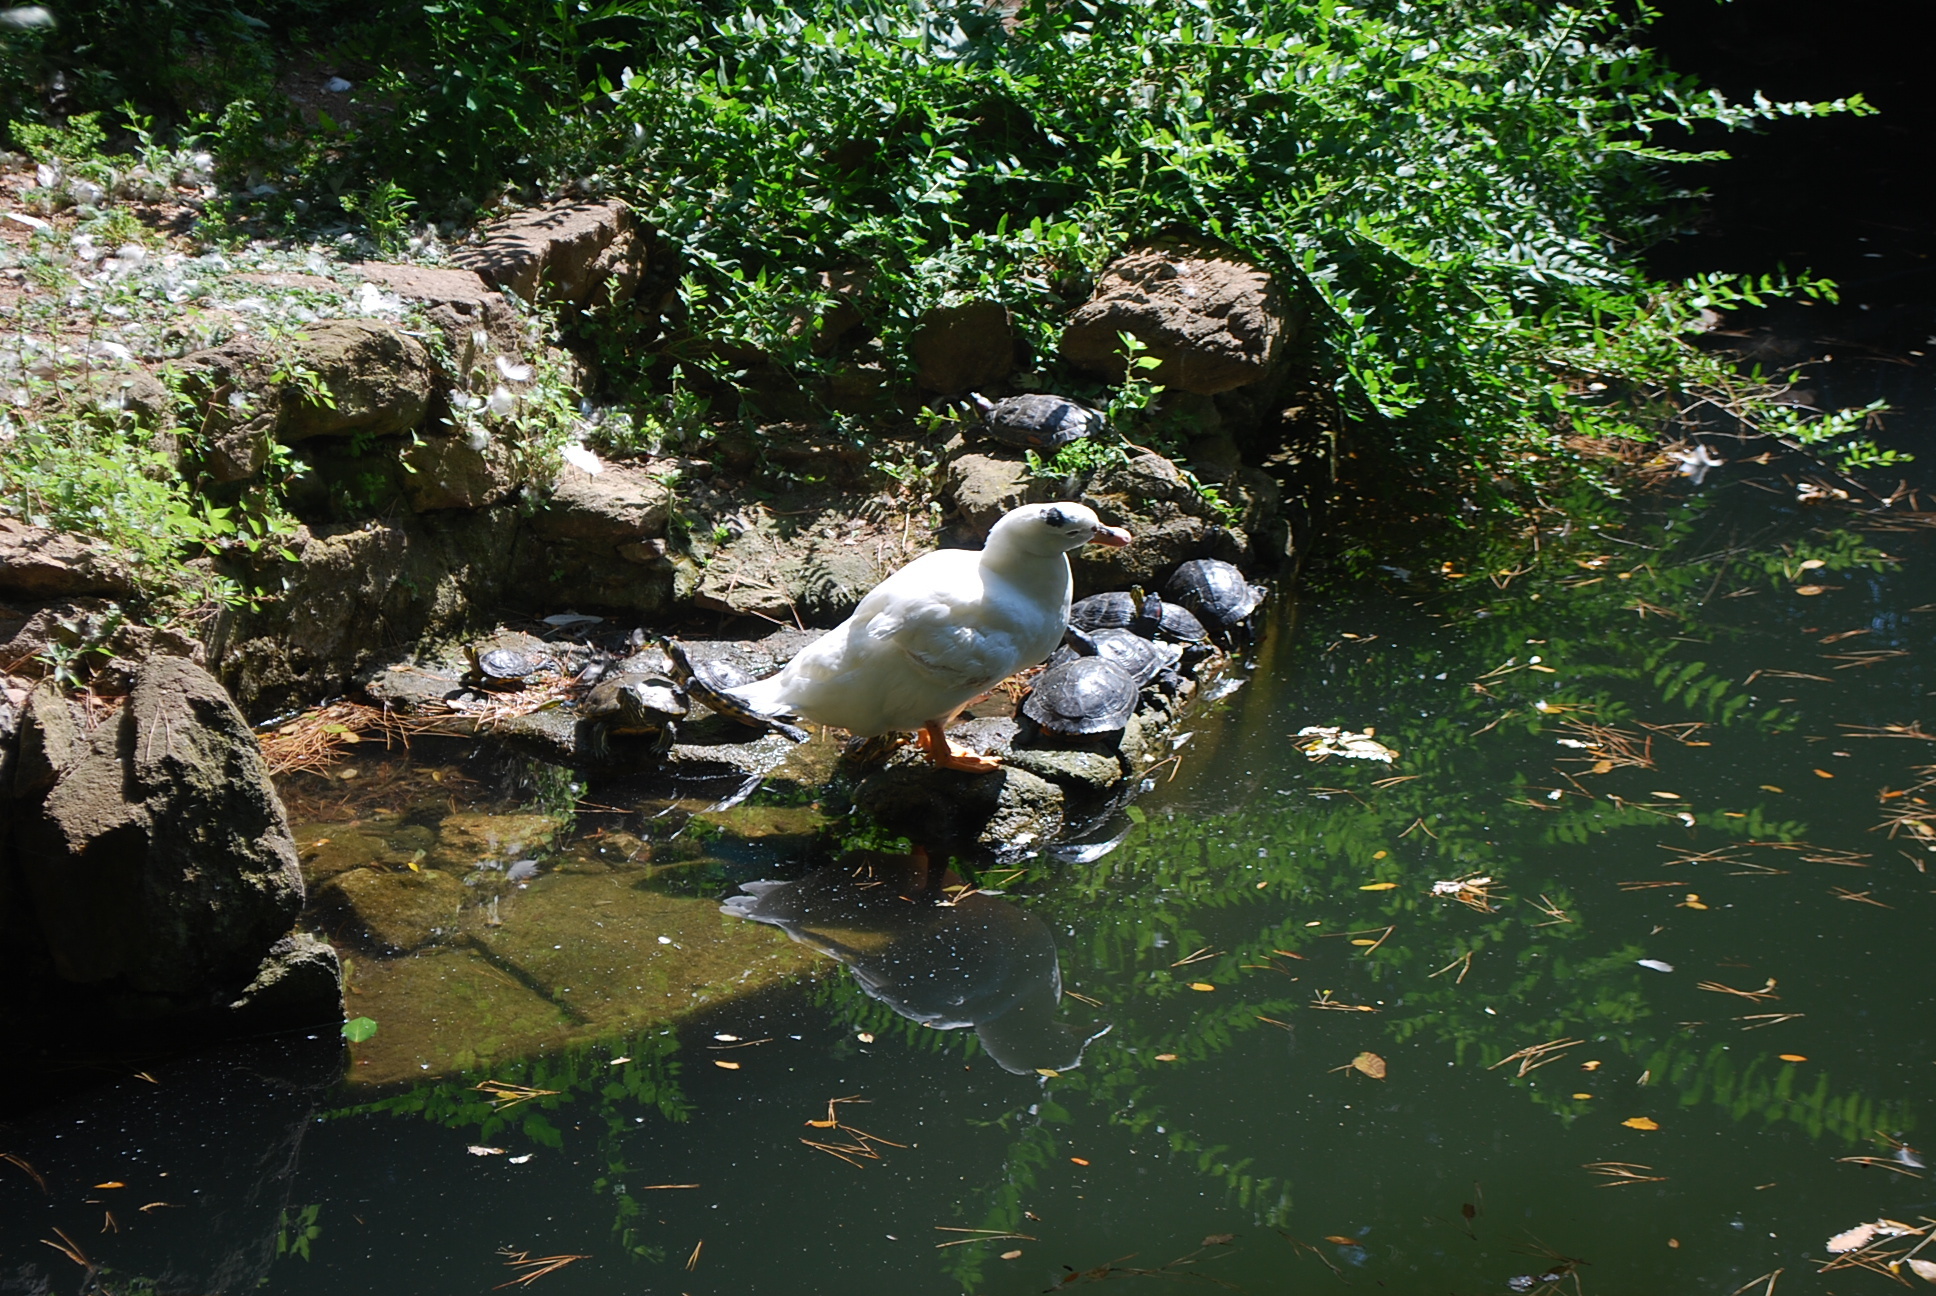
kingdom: Animalia
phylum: Chordata
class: Aves
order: Anseriformes
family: Anatidae
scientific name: Anatidae
